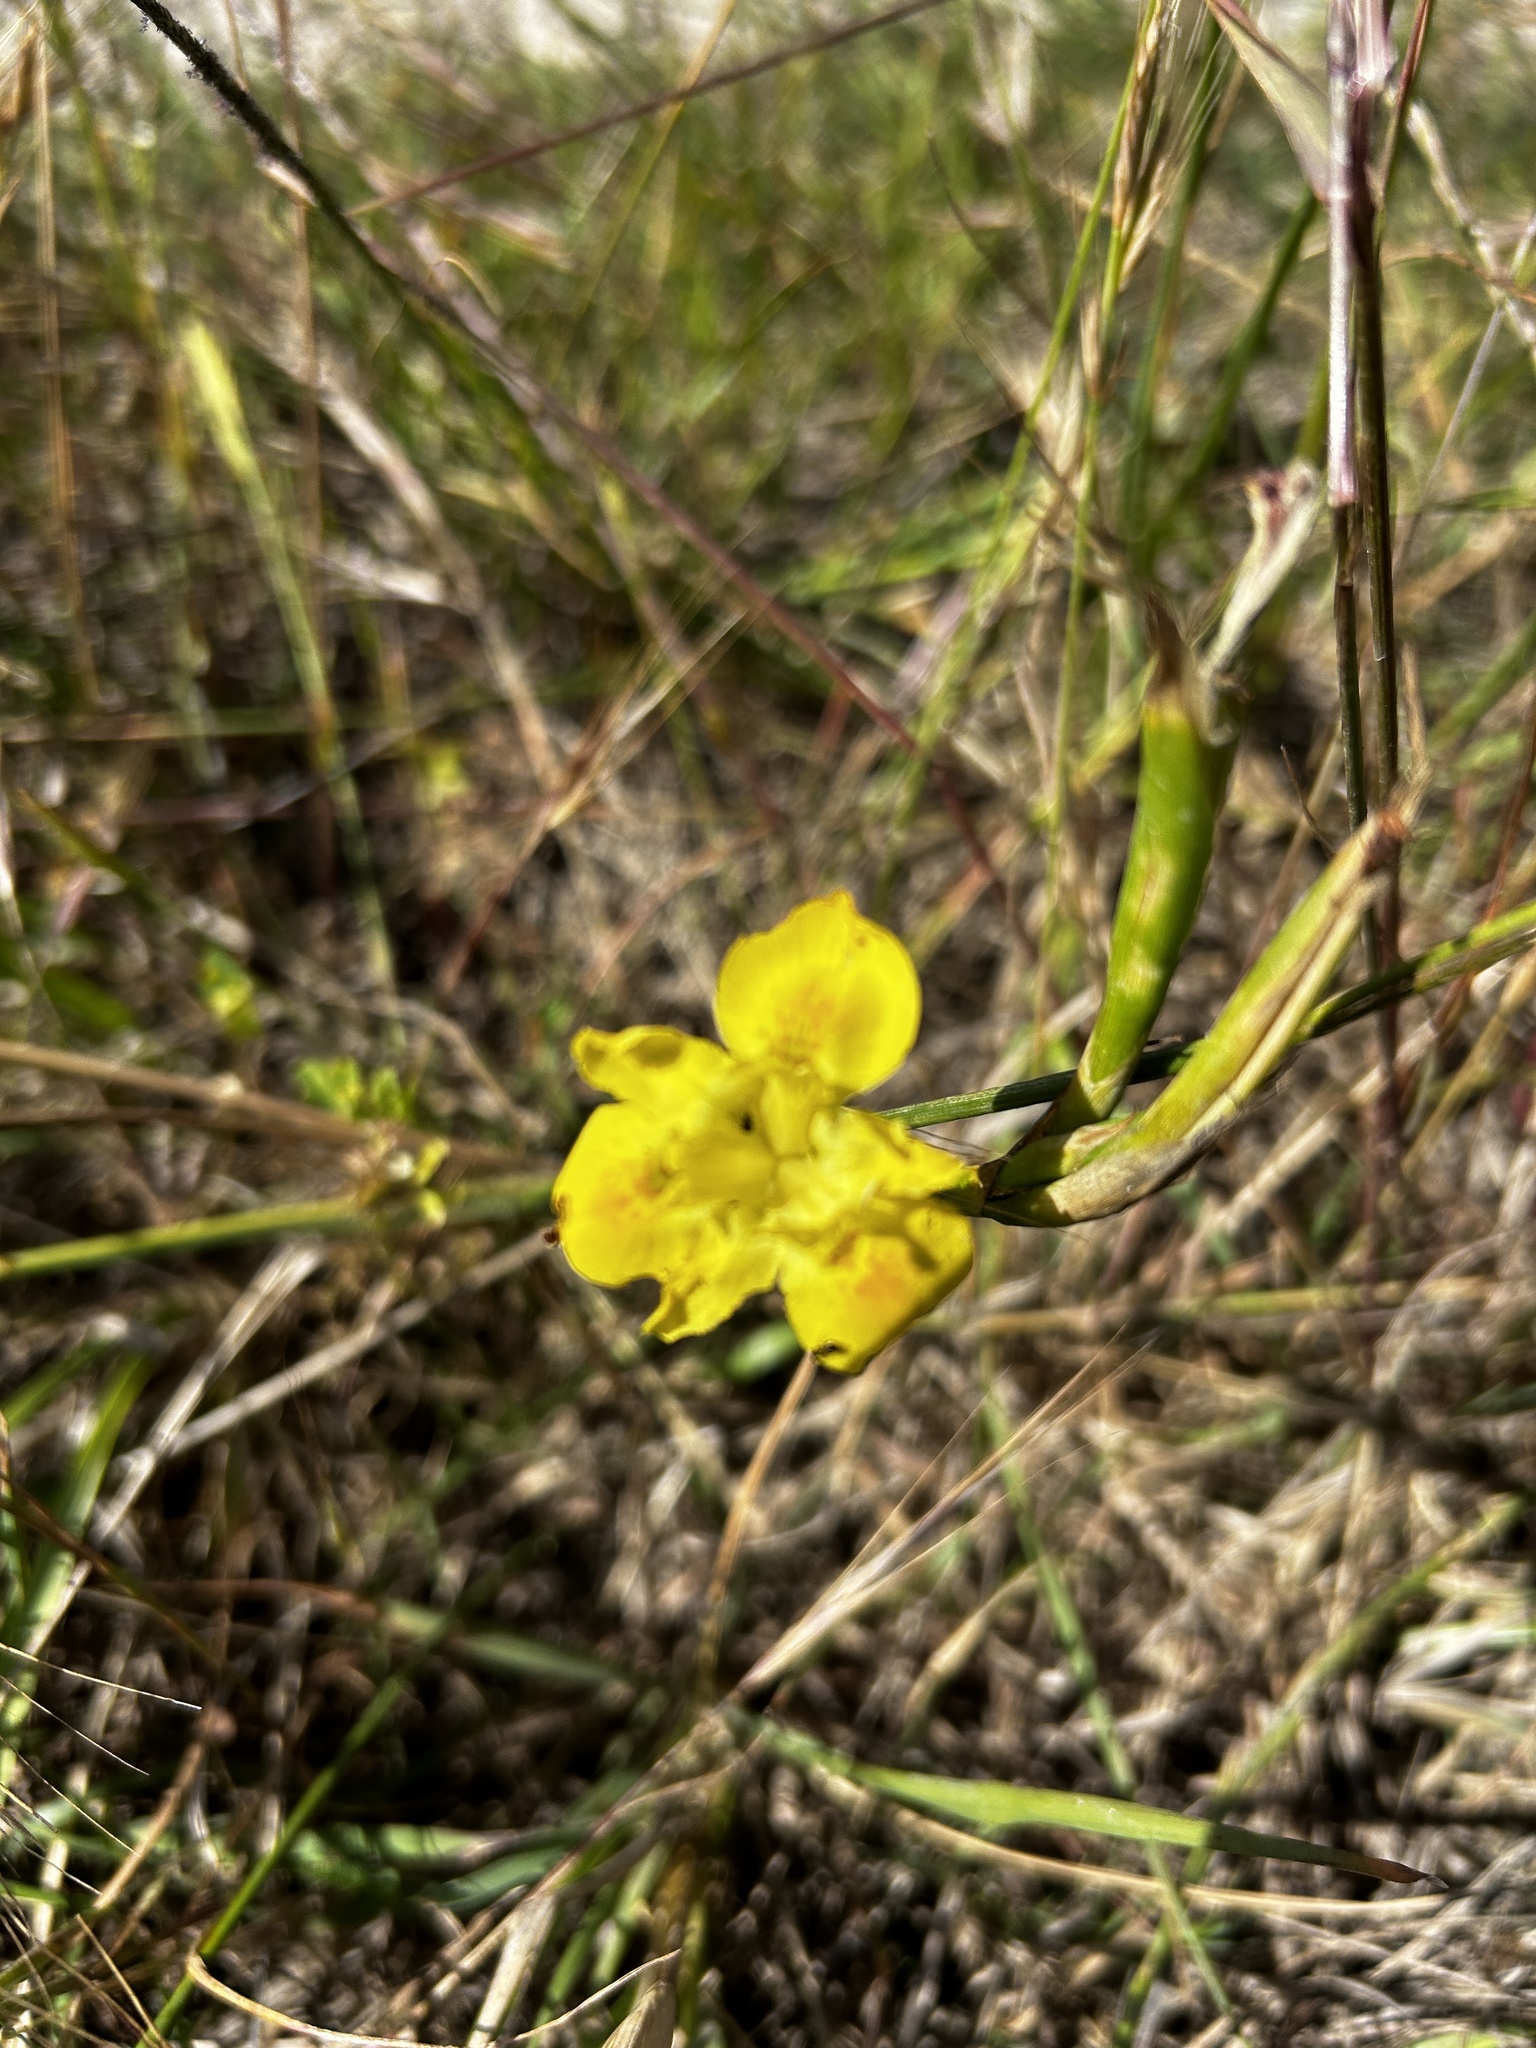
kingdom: Plantae
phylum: Tracheophyta
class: Liliopsida
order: Asparagales
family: Iridaceae
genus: Moraea
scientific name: Moraea fugax
